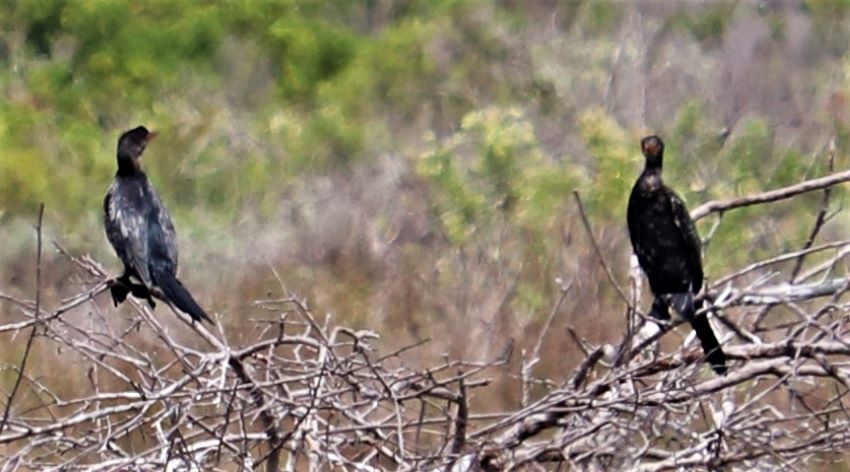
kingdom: Animalia
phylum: Chordata
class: Aves
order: Suliformes
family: Phalacrocoracidae
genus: Microcarbo
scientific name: Microcarbo africanus
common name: Long-tailed cormorant
